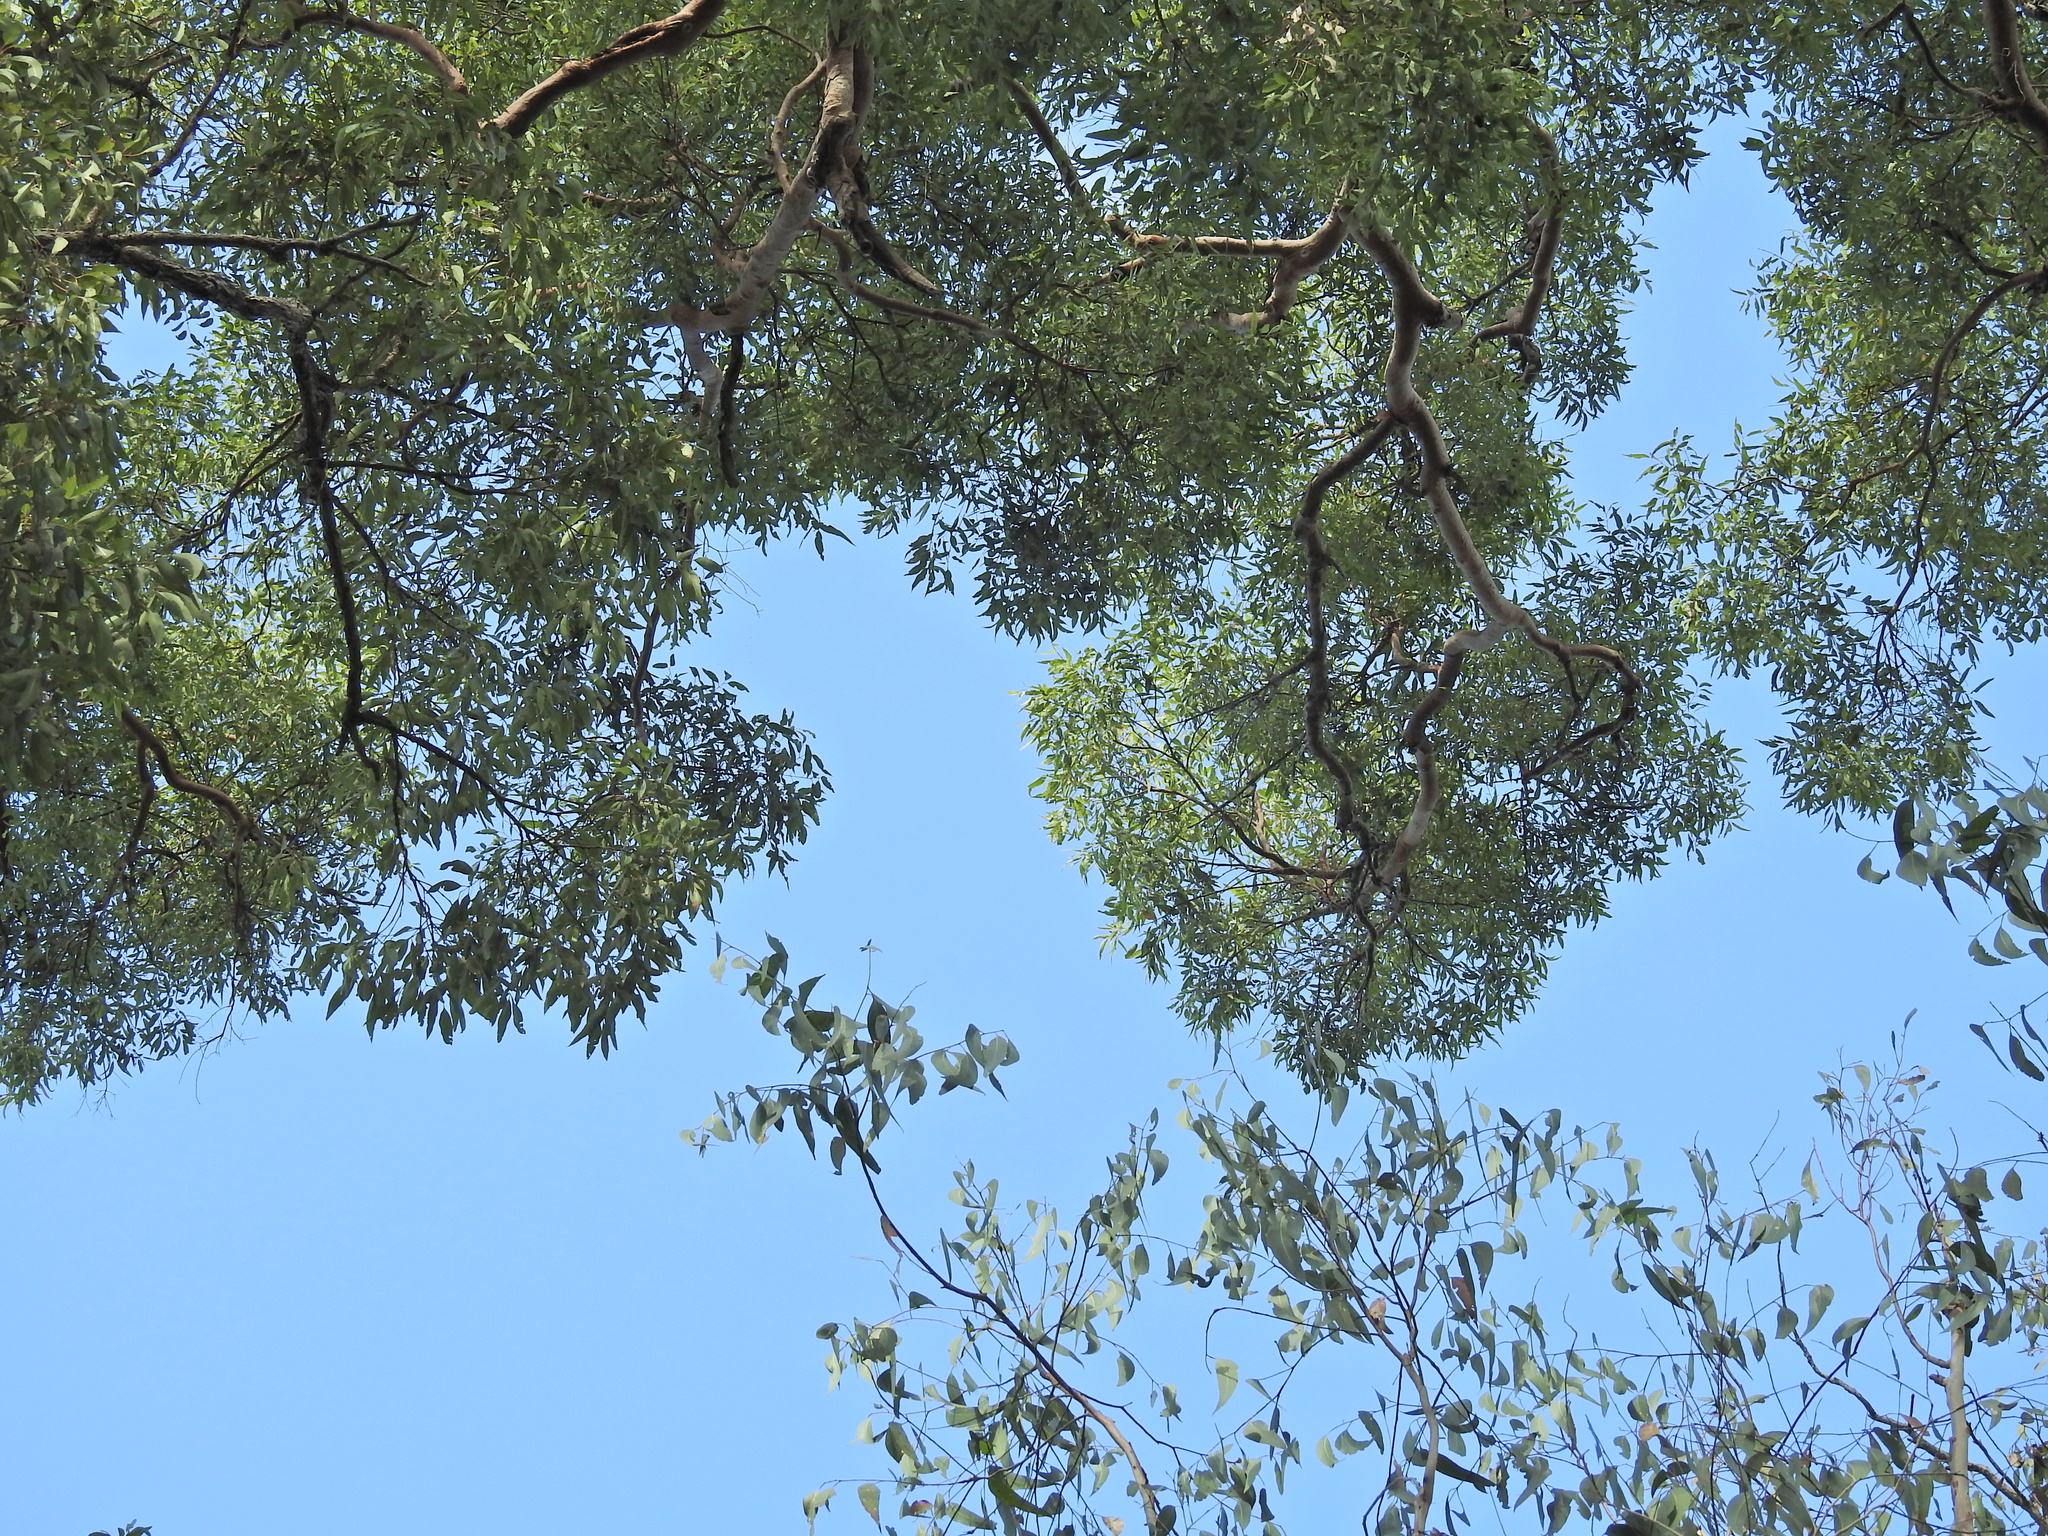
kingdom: Plantae
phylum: Tracheophyta
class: Magnoliopsida
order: Myrtales
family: Myrtaceae
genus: Angophora
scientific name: Angophora leiocarpa
